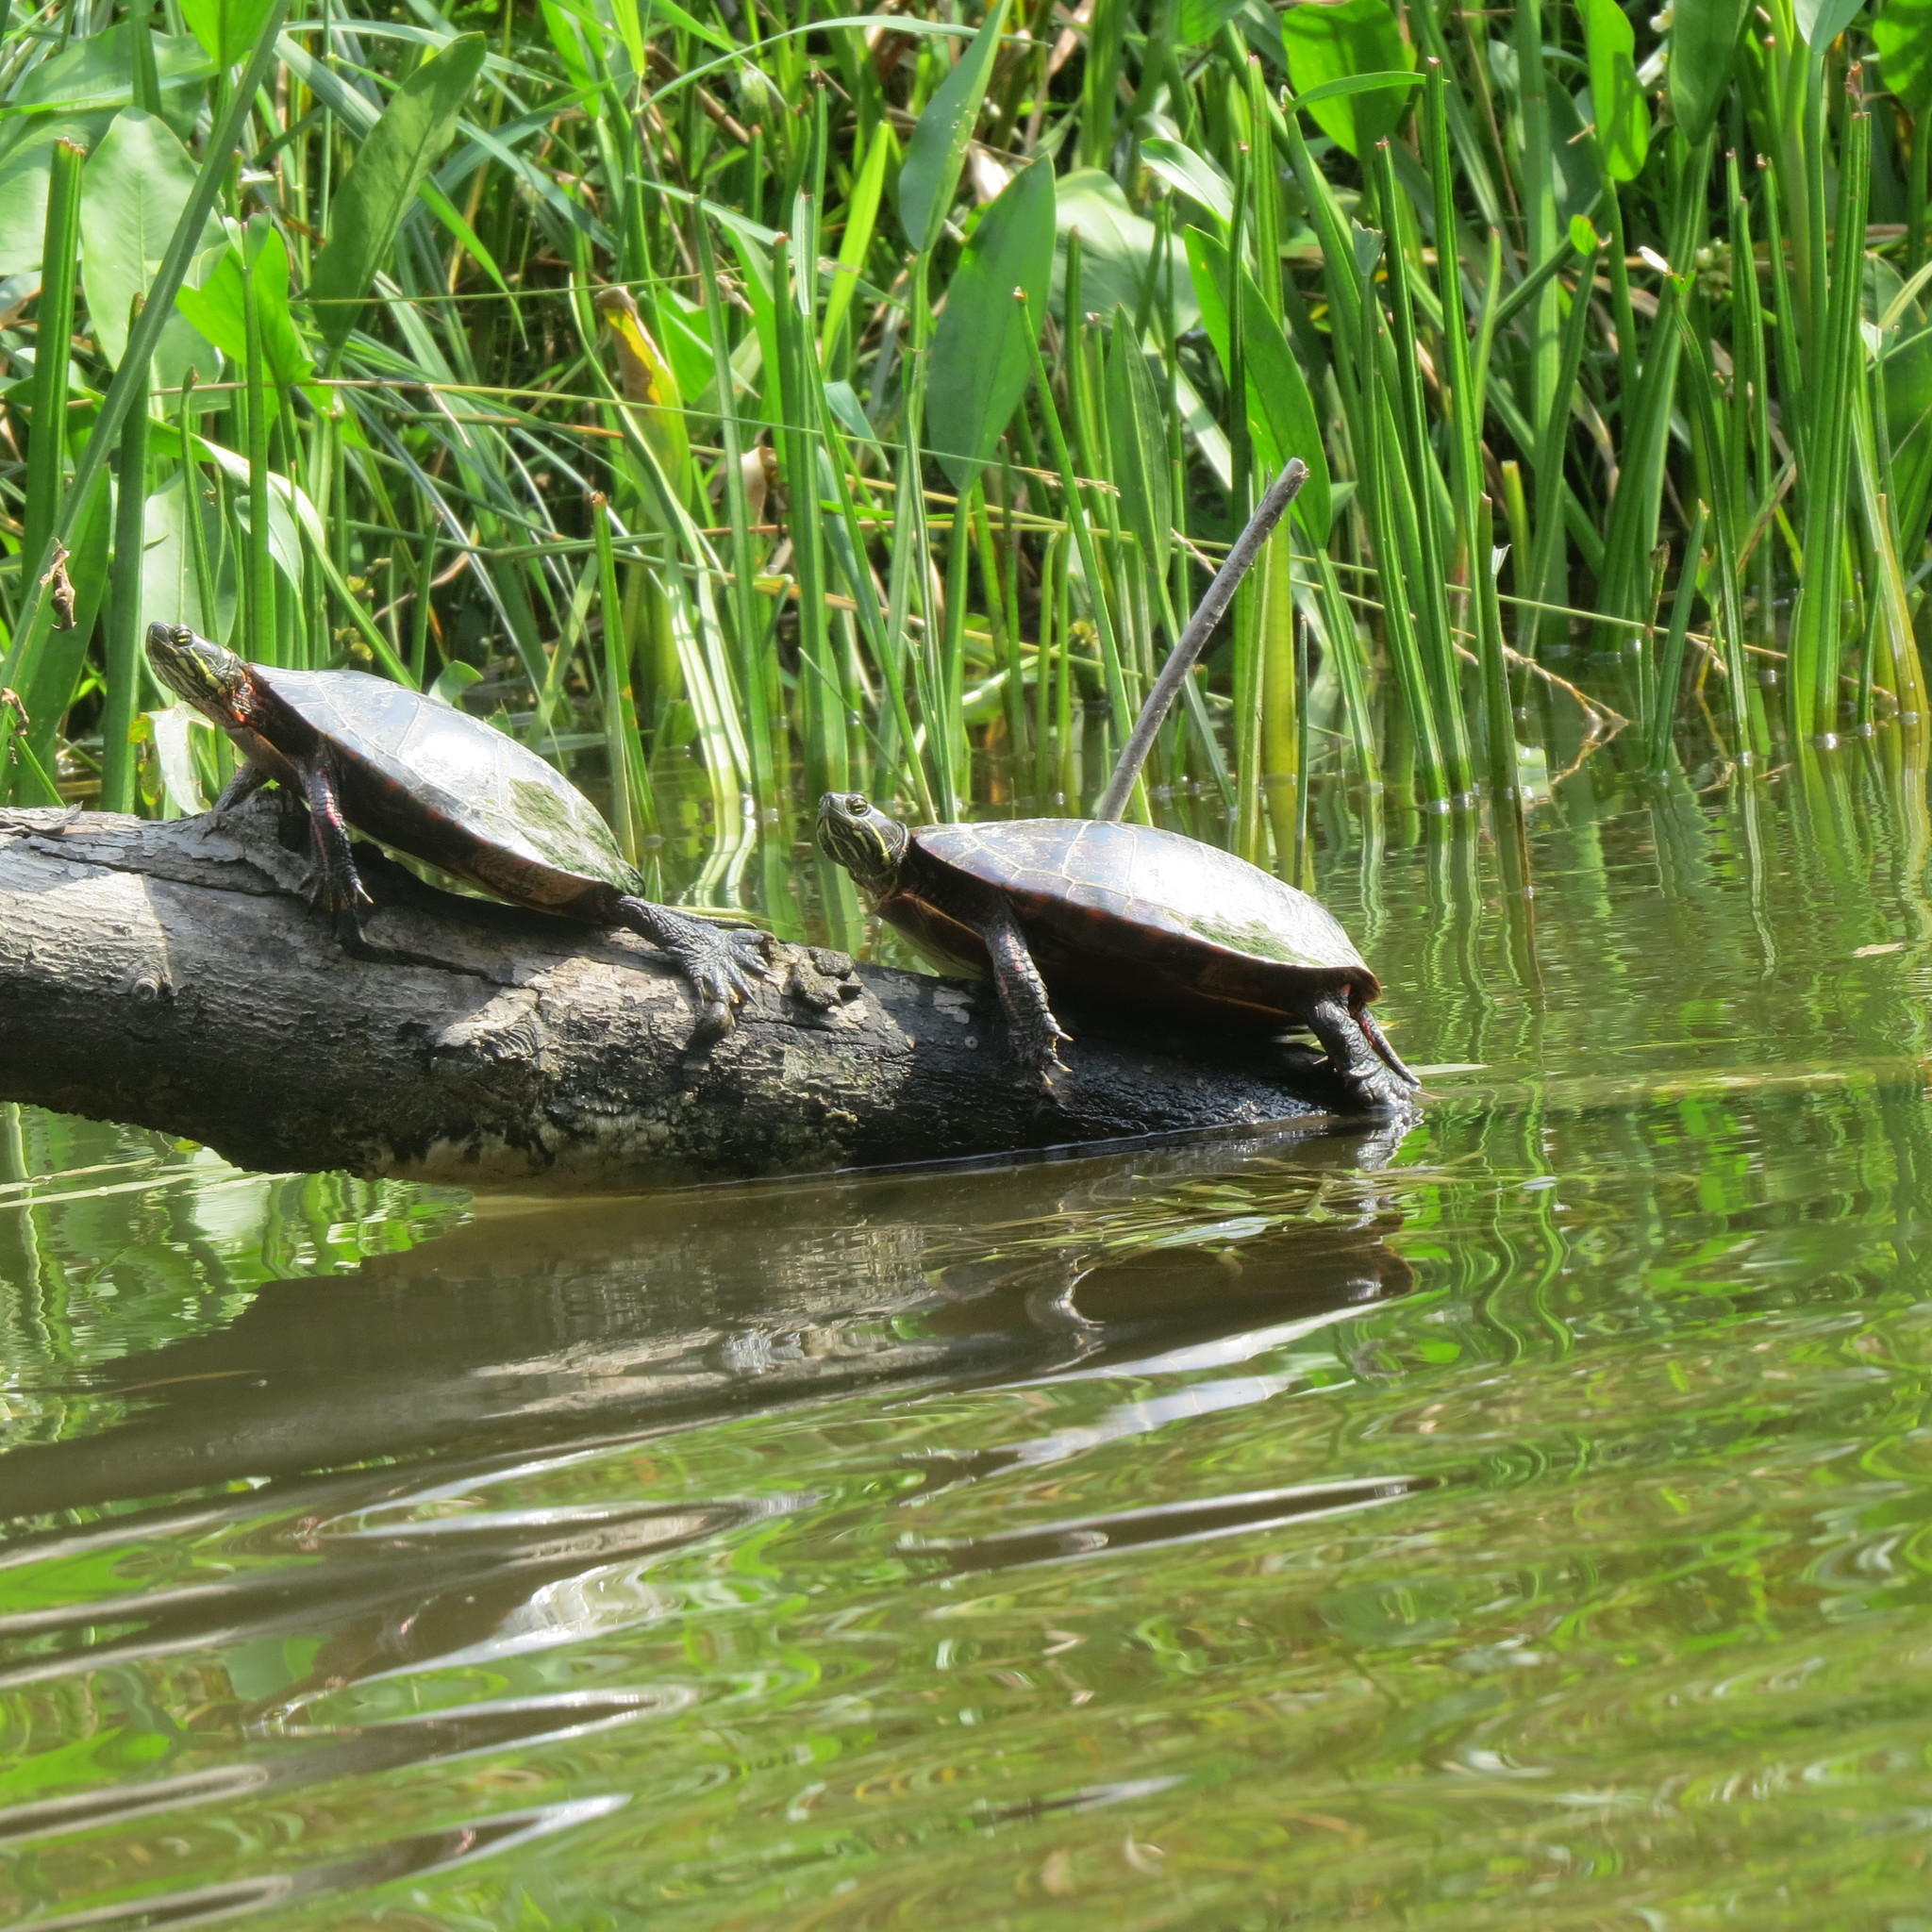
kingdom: Animalia
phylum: Chordata
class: Testudines
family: Emydidae
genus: Chrysemys
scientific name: Chrysemys picta
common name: Painted turtle
